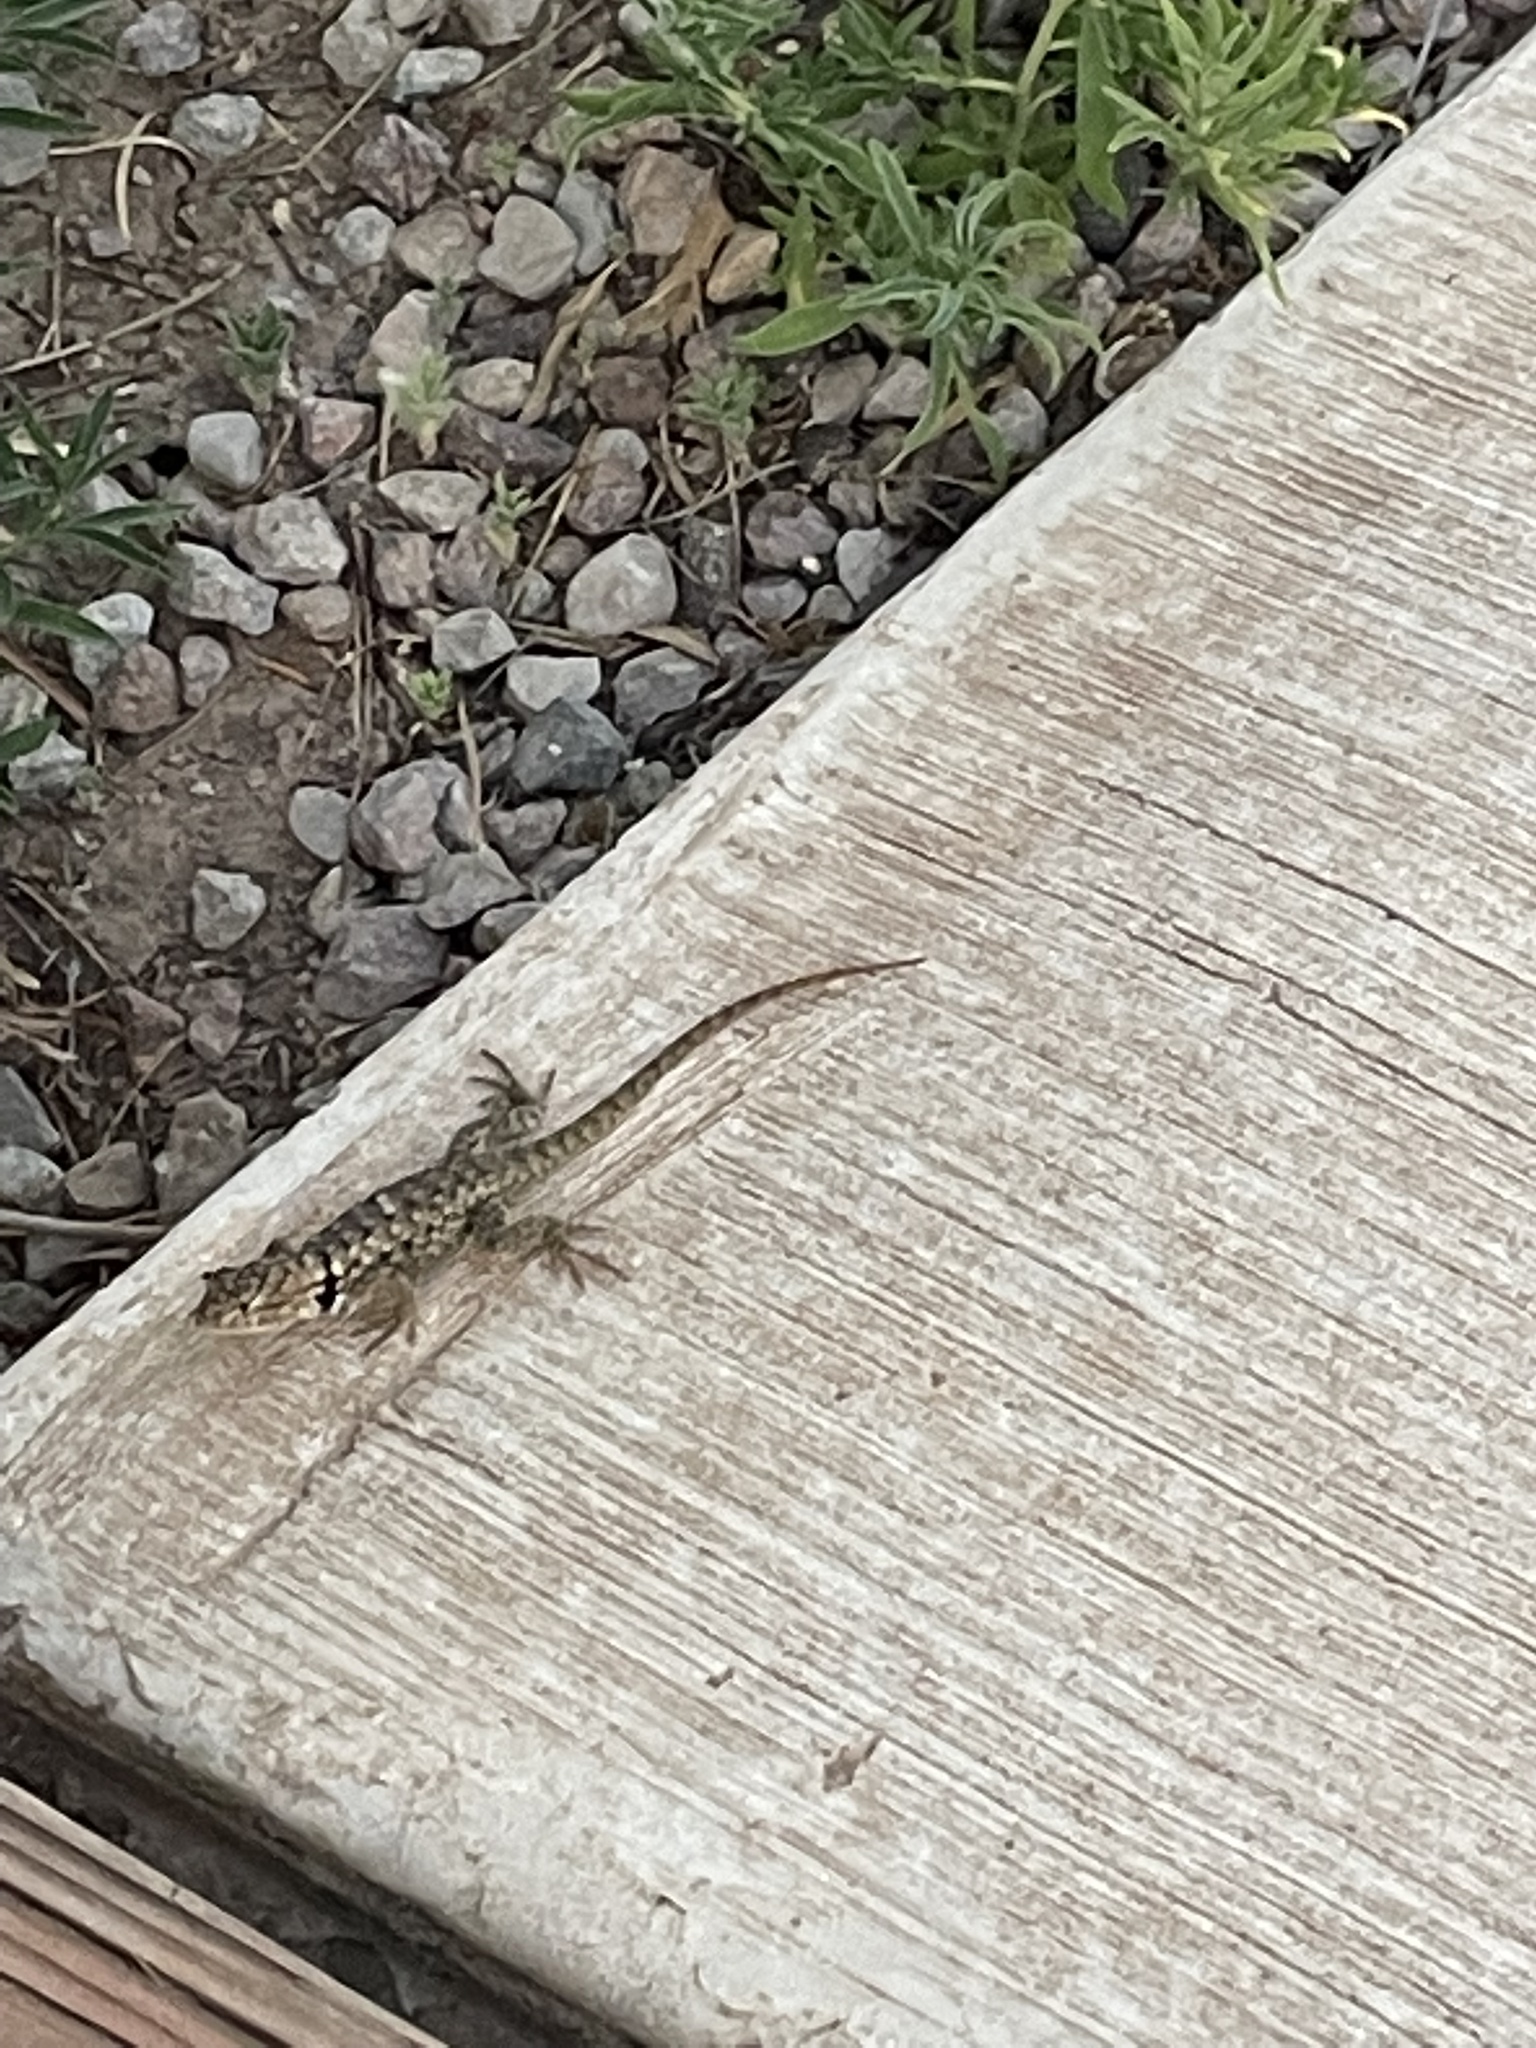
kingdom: Animalia
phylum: Chordata
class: Squamata
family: Phrynosomatidae
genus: Sceloporus
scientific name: Sceloporus bimaculosus
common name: Twin-spotted spiny lizard
